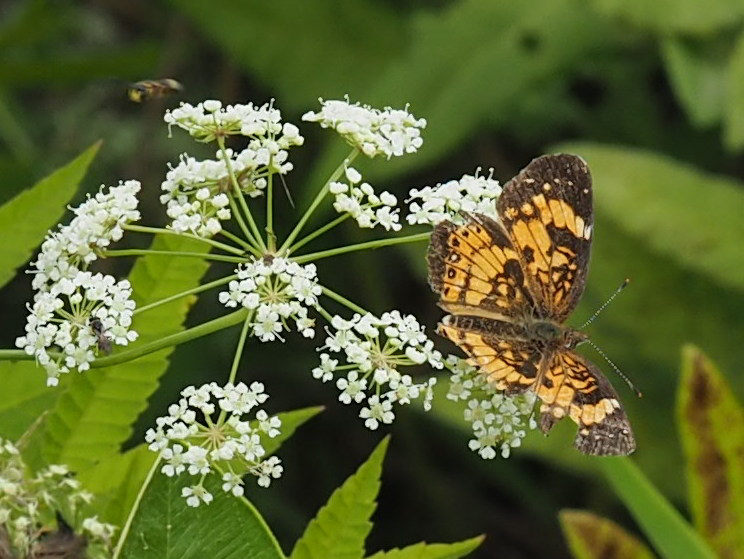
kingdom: Animalia
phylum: Arthropoda
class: Insecta
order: Lepidoptera
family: Nymphalidae
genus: Chlosyne
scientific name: Chlosyne nycteis
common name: Silvery checkerspot
